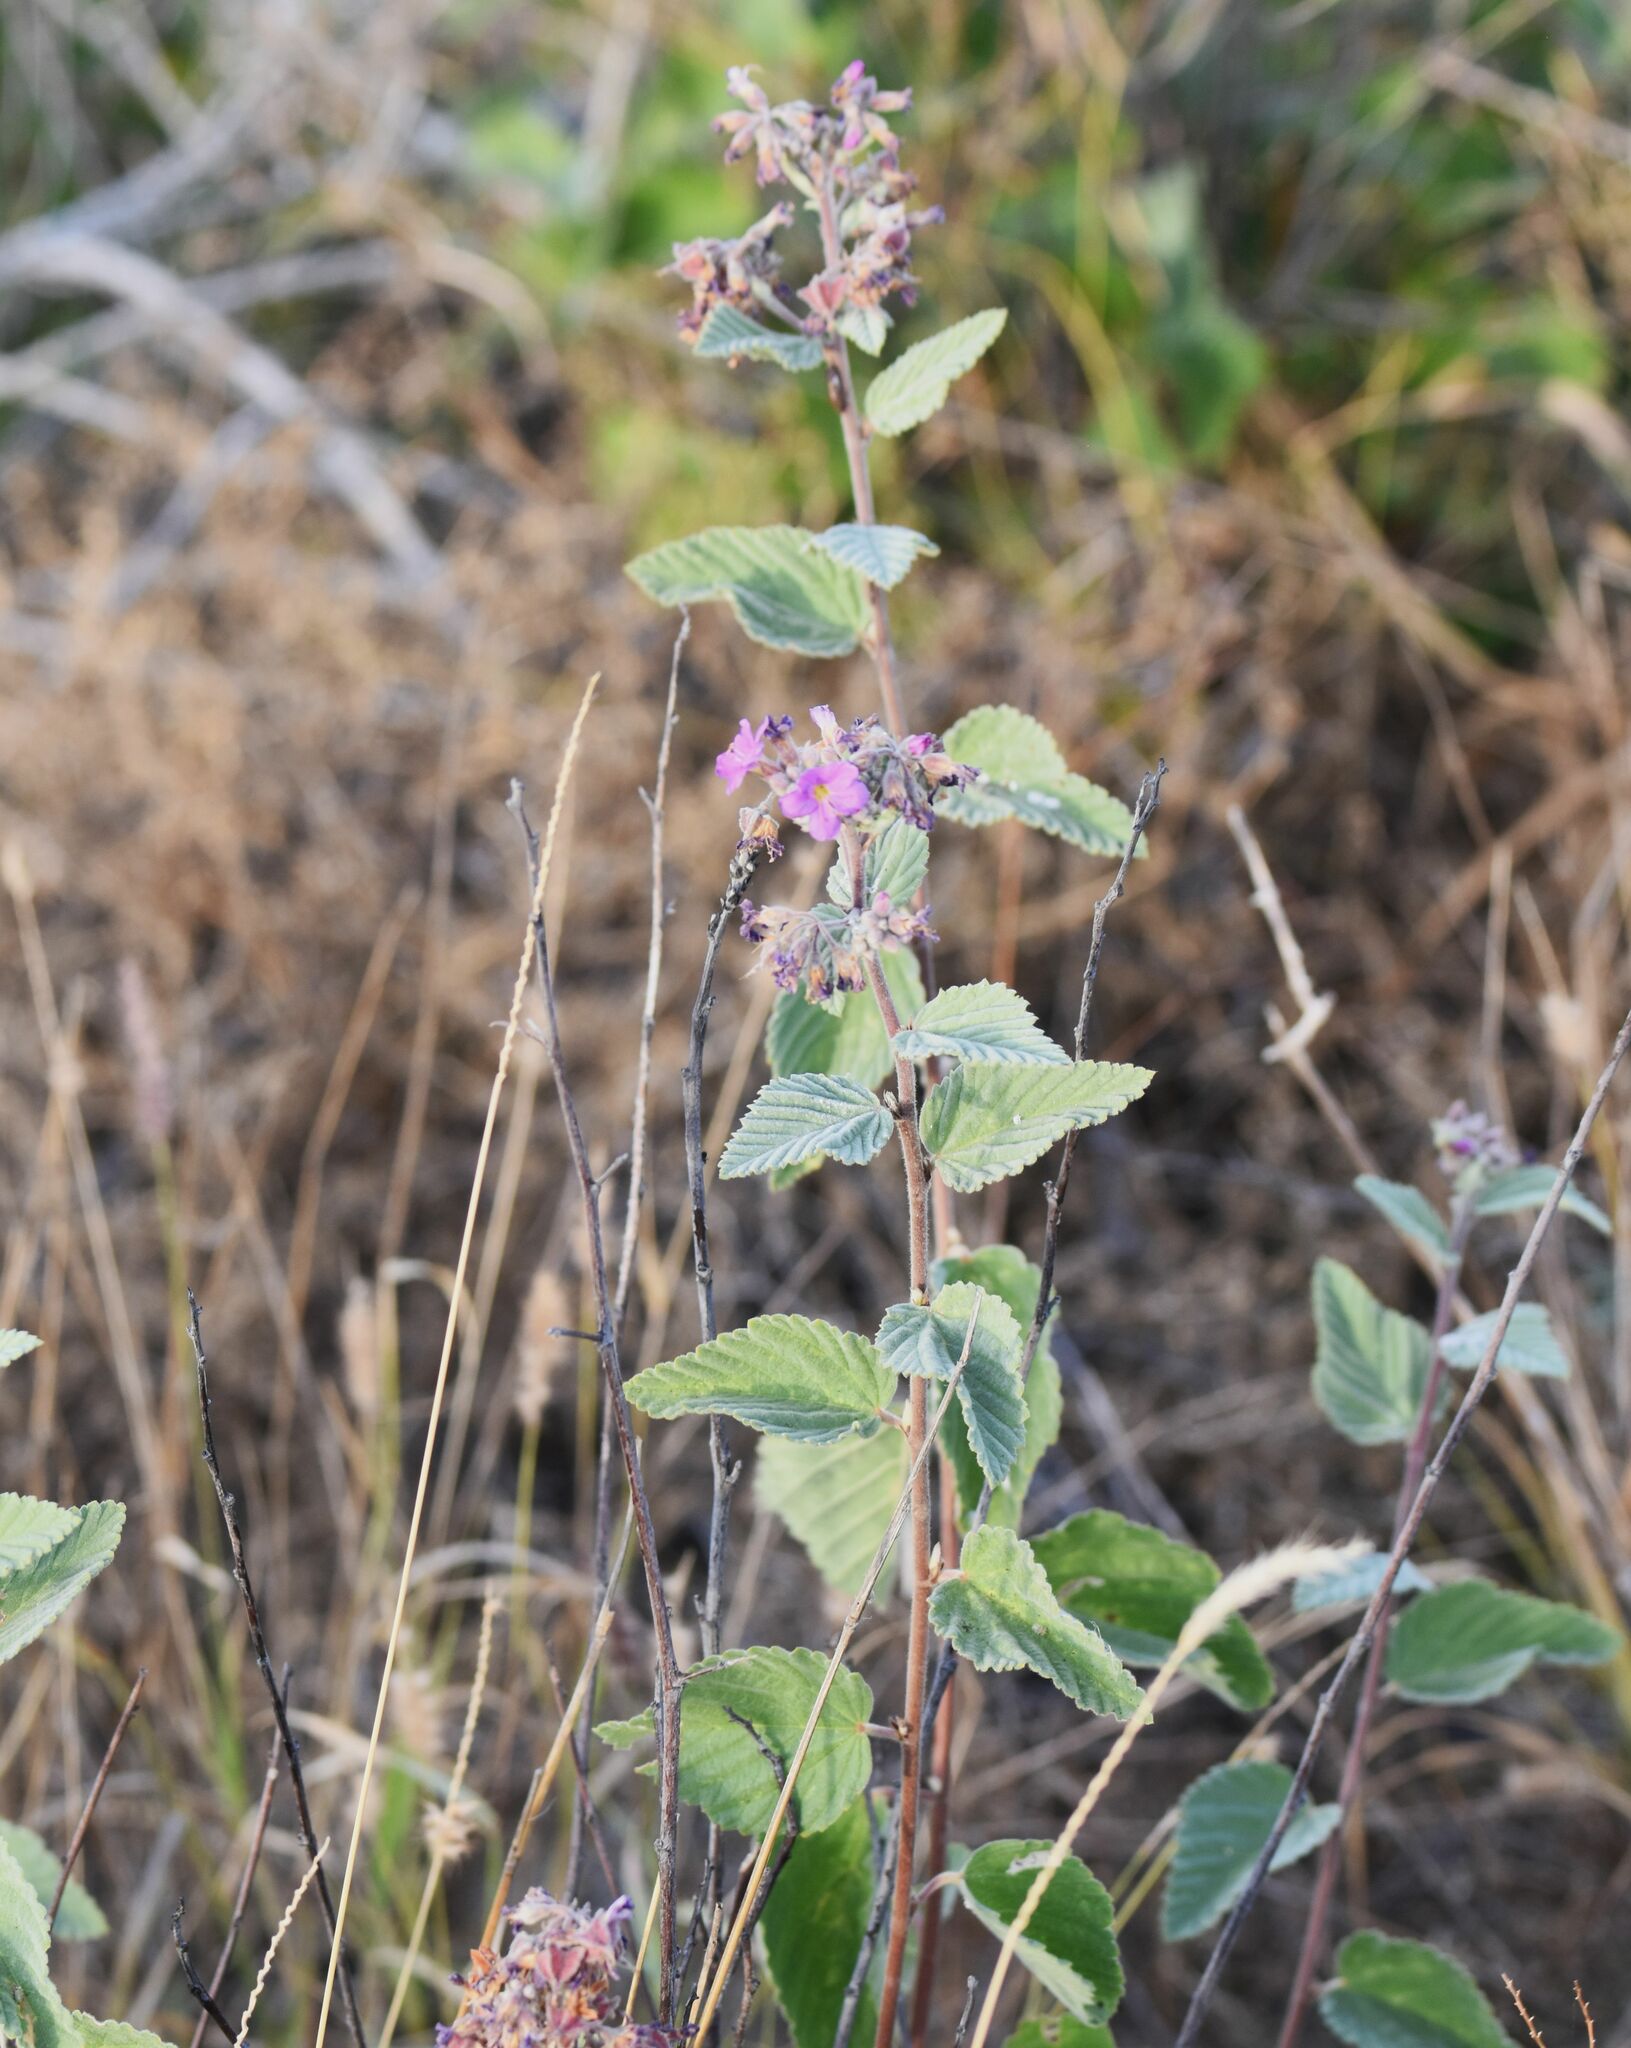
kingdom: Plantae
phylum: Tracheophyta
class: Magnoliopsida
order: Malvales
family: Malvaceae
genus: Melochia
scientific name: Melochia tomentosa
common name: Black torch
